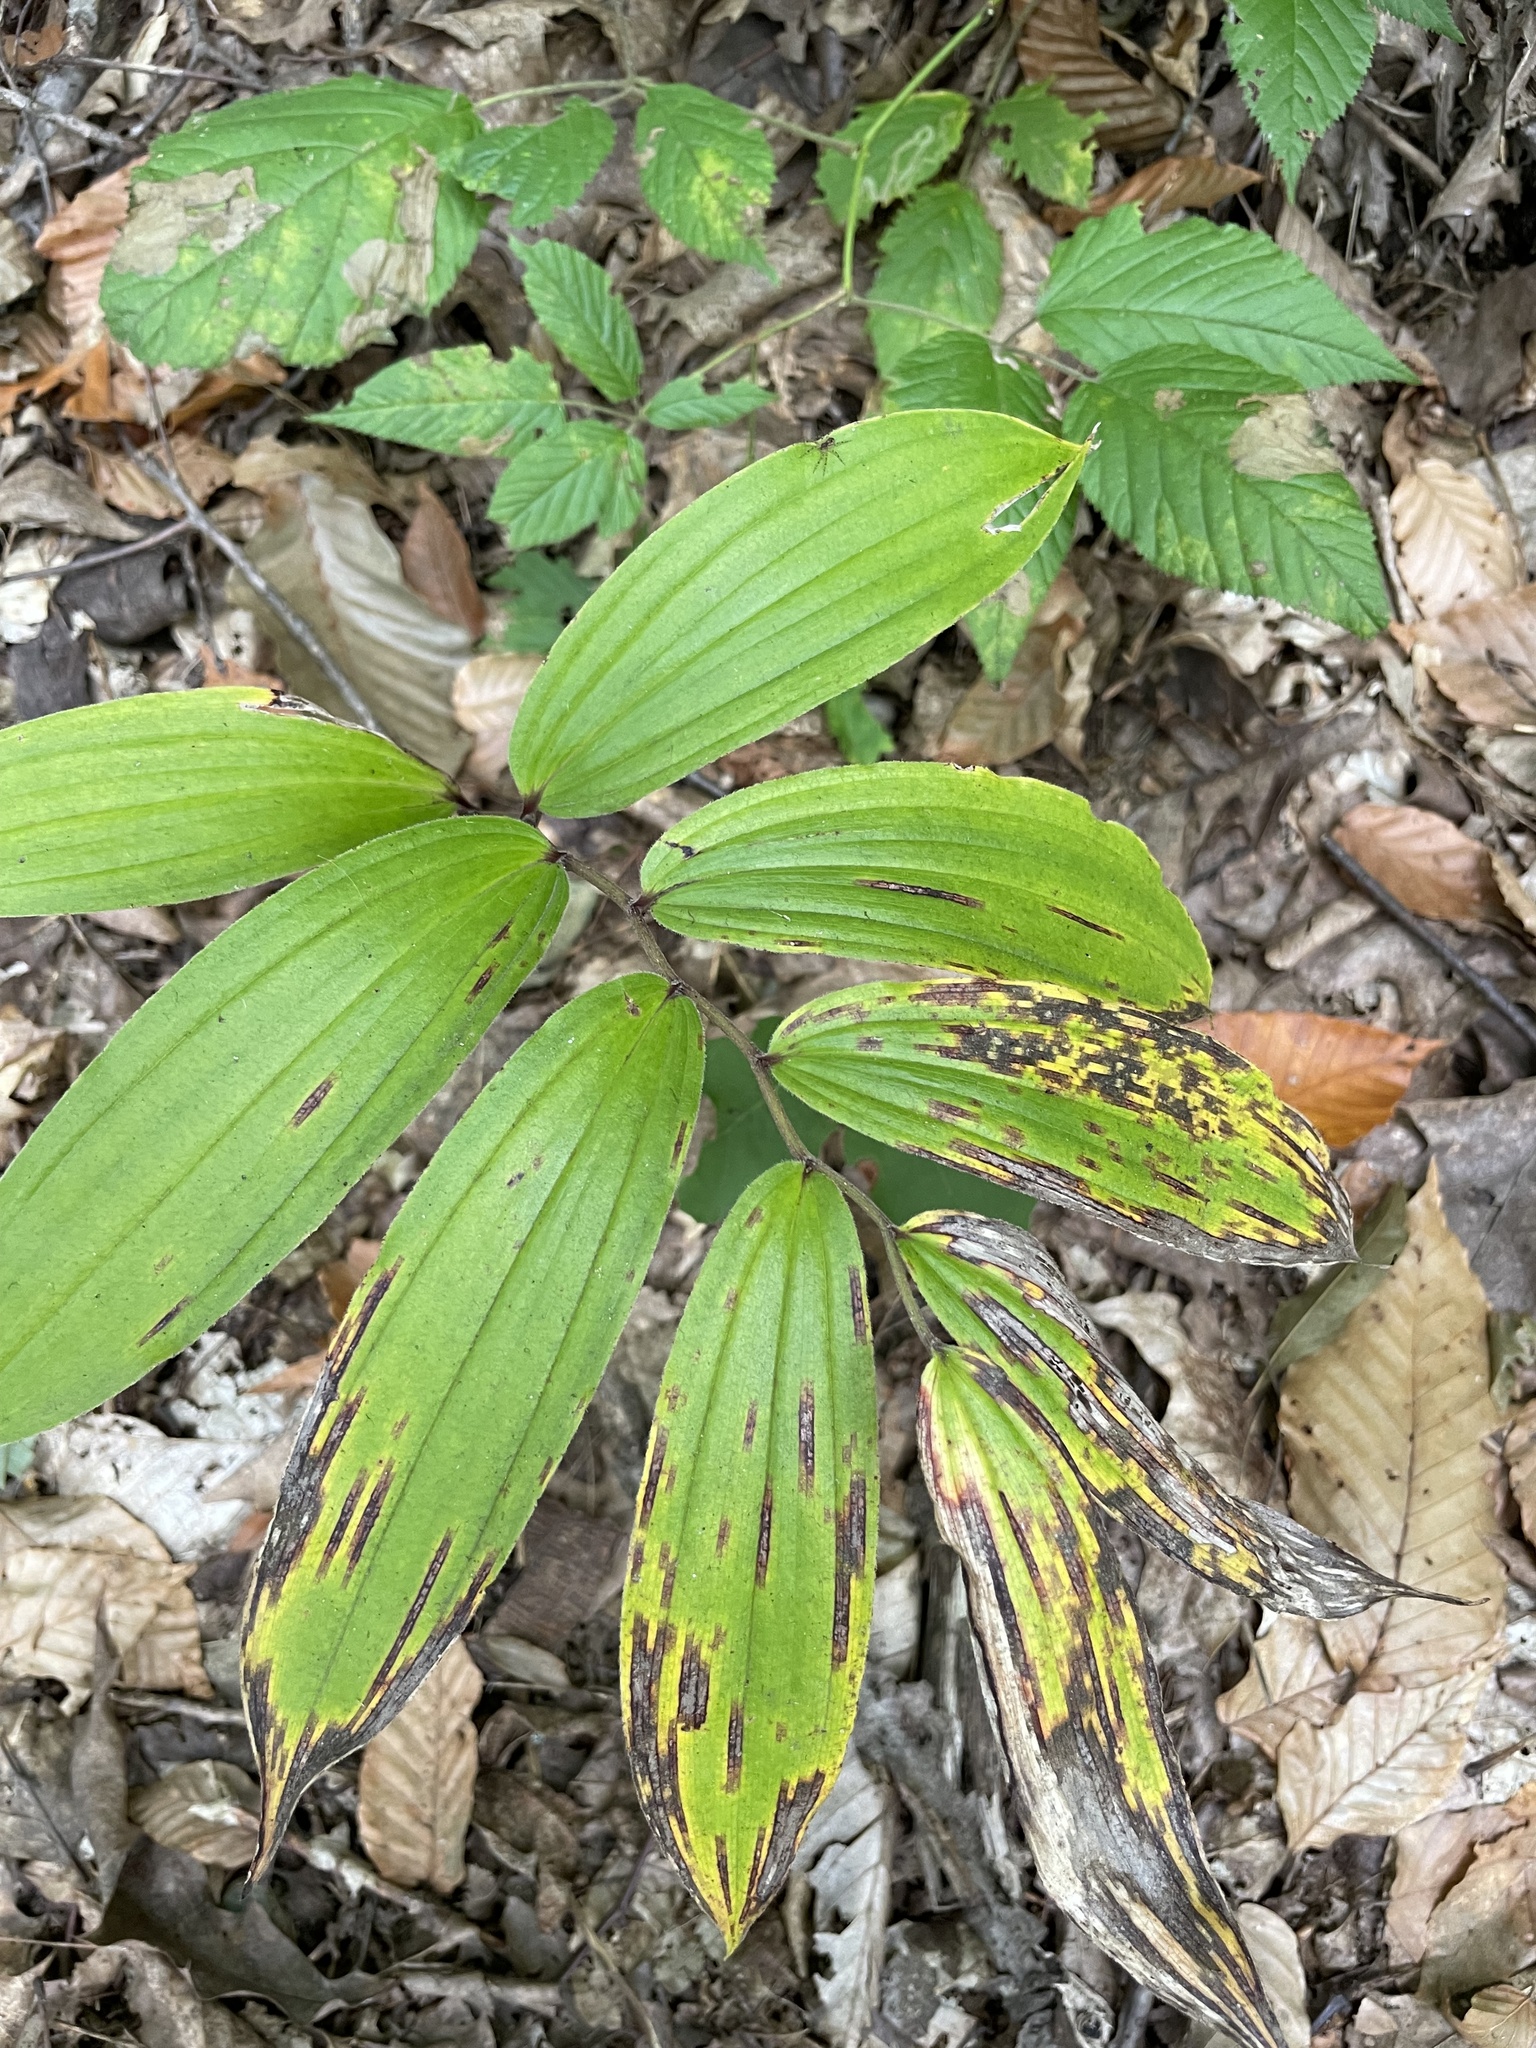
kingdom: Plantae
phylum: Tracheophyta
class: Liliopsida
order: Asparagales
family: Asparagaceae
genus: Maianthemum
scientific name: Maianthemum racemosum
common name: False spikenard
